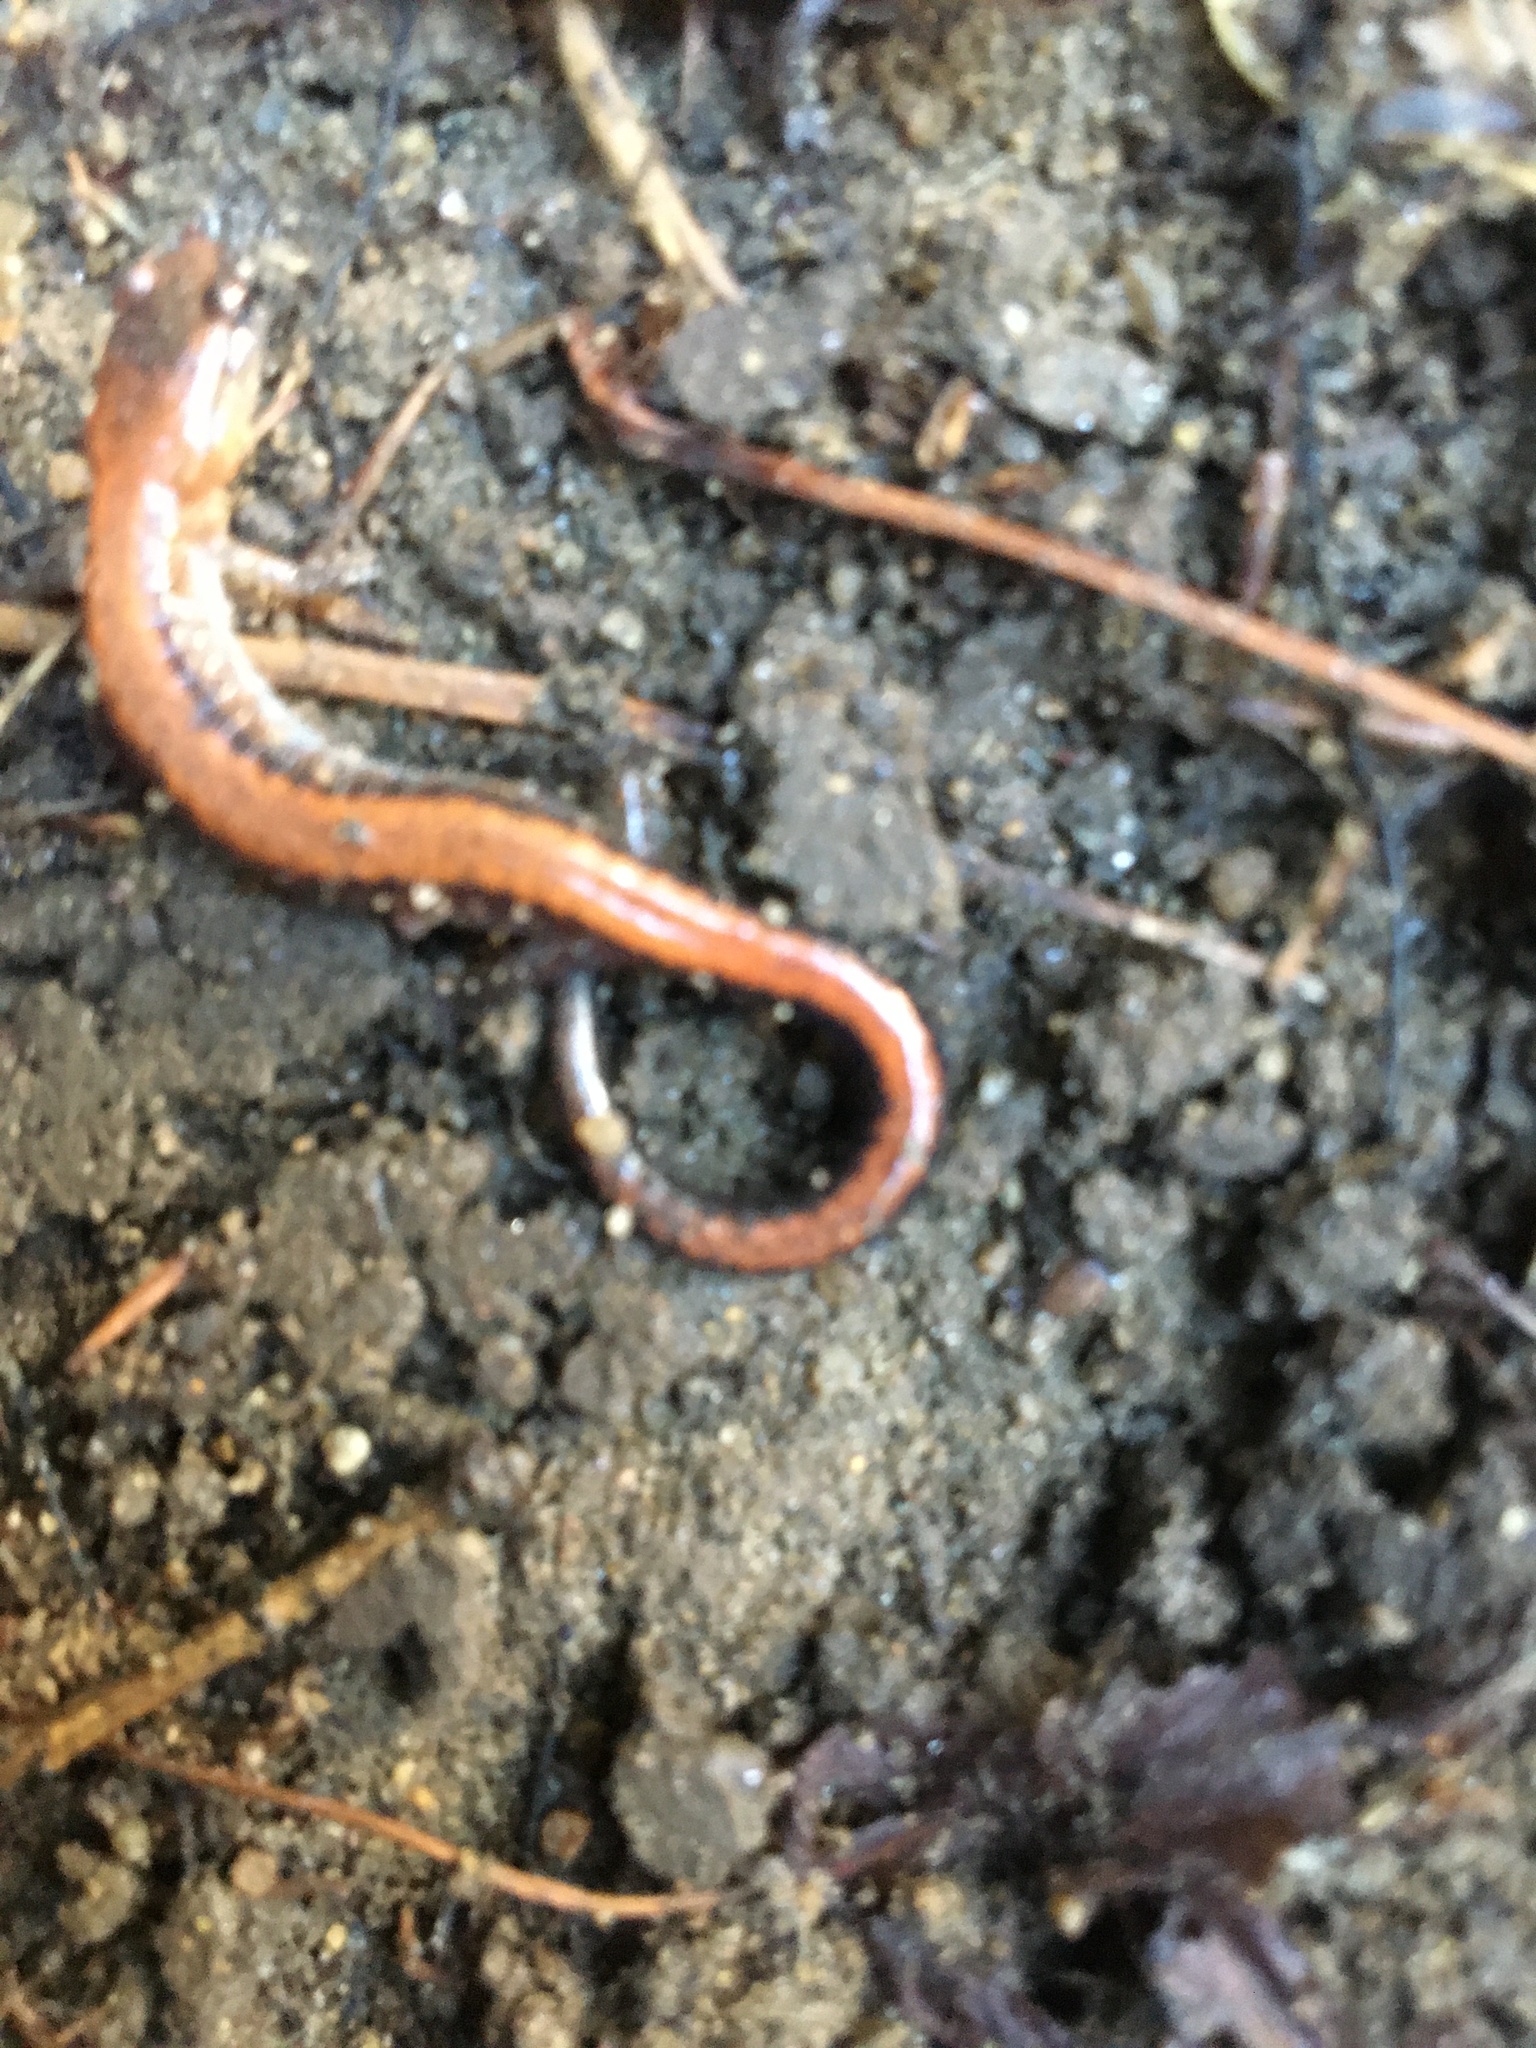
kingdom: Animalia
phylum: Chordata
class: Amphibia
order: Caudata
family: Plethodontidae
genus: Plethodon
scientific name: Plethodon cinereus
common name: Redback salamander
